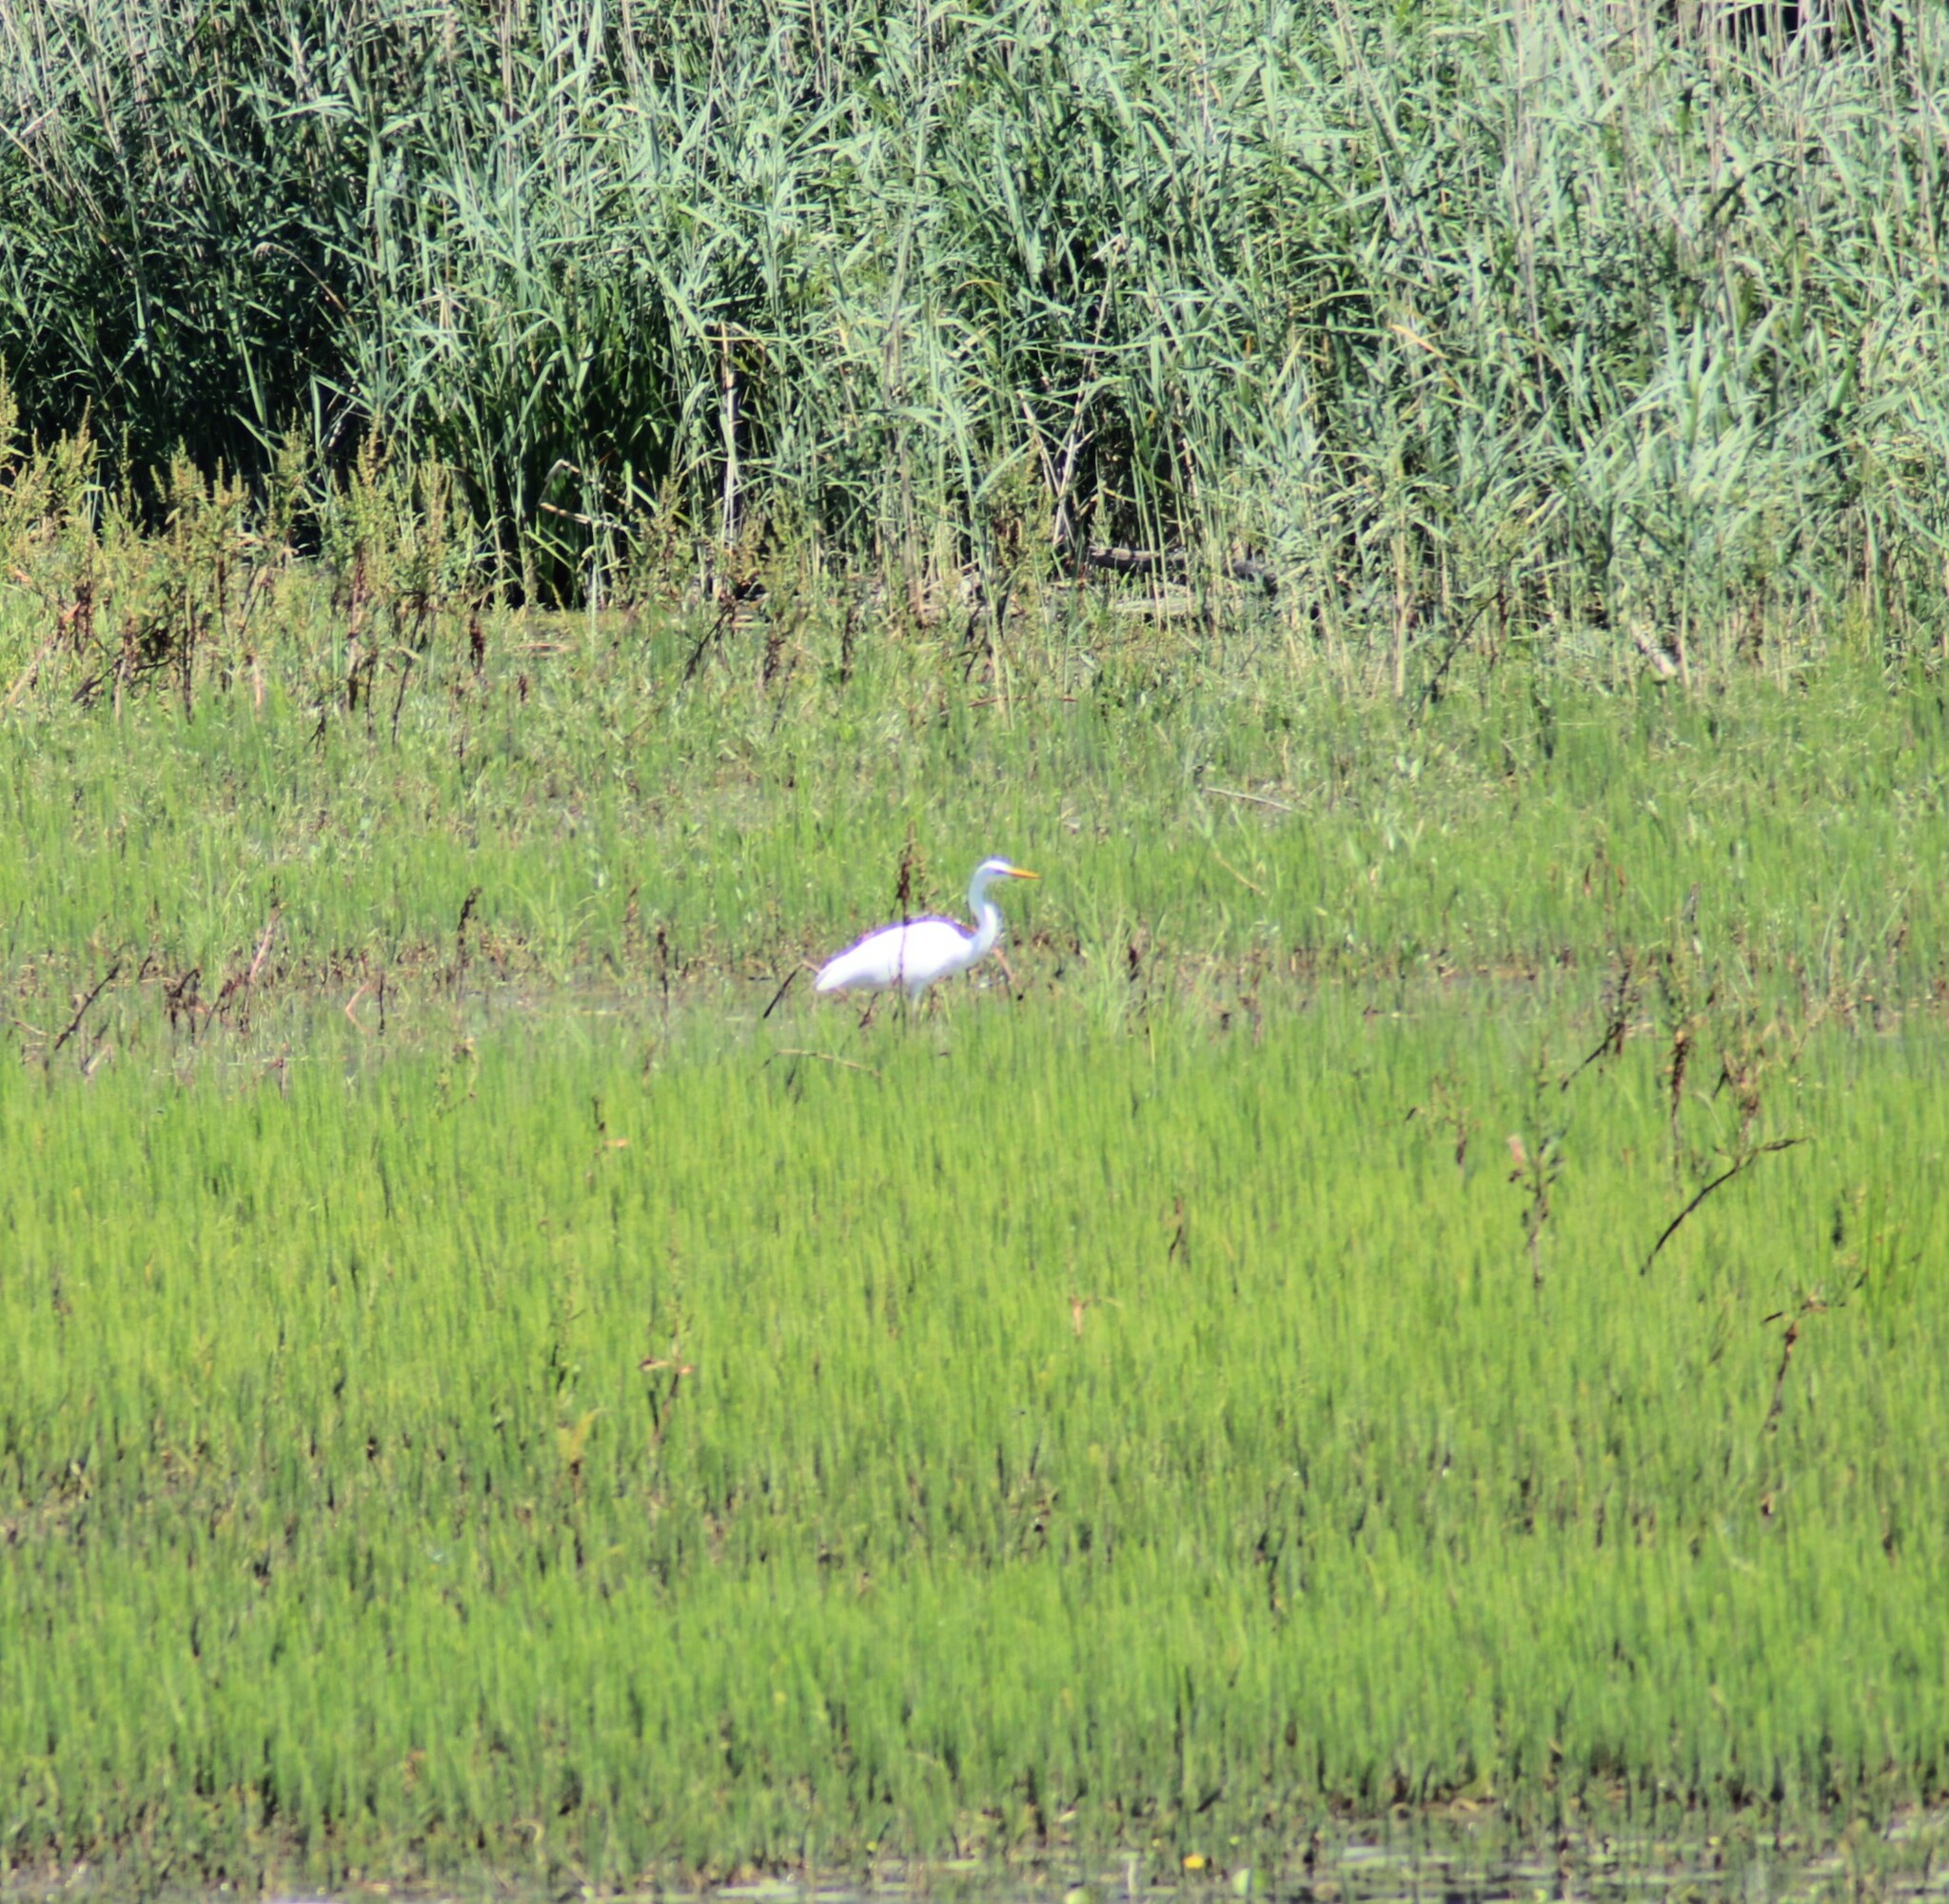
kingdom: Animalia
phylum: Chordata
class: Aves
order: Pelecaniformes
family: Ardeidae
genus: Ardea
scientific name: Ardea alba
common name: Great egret
